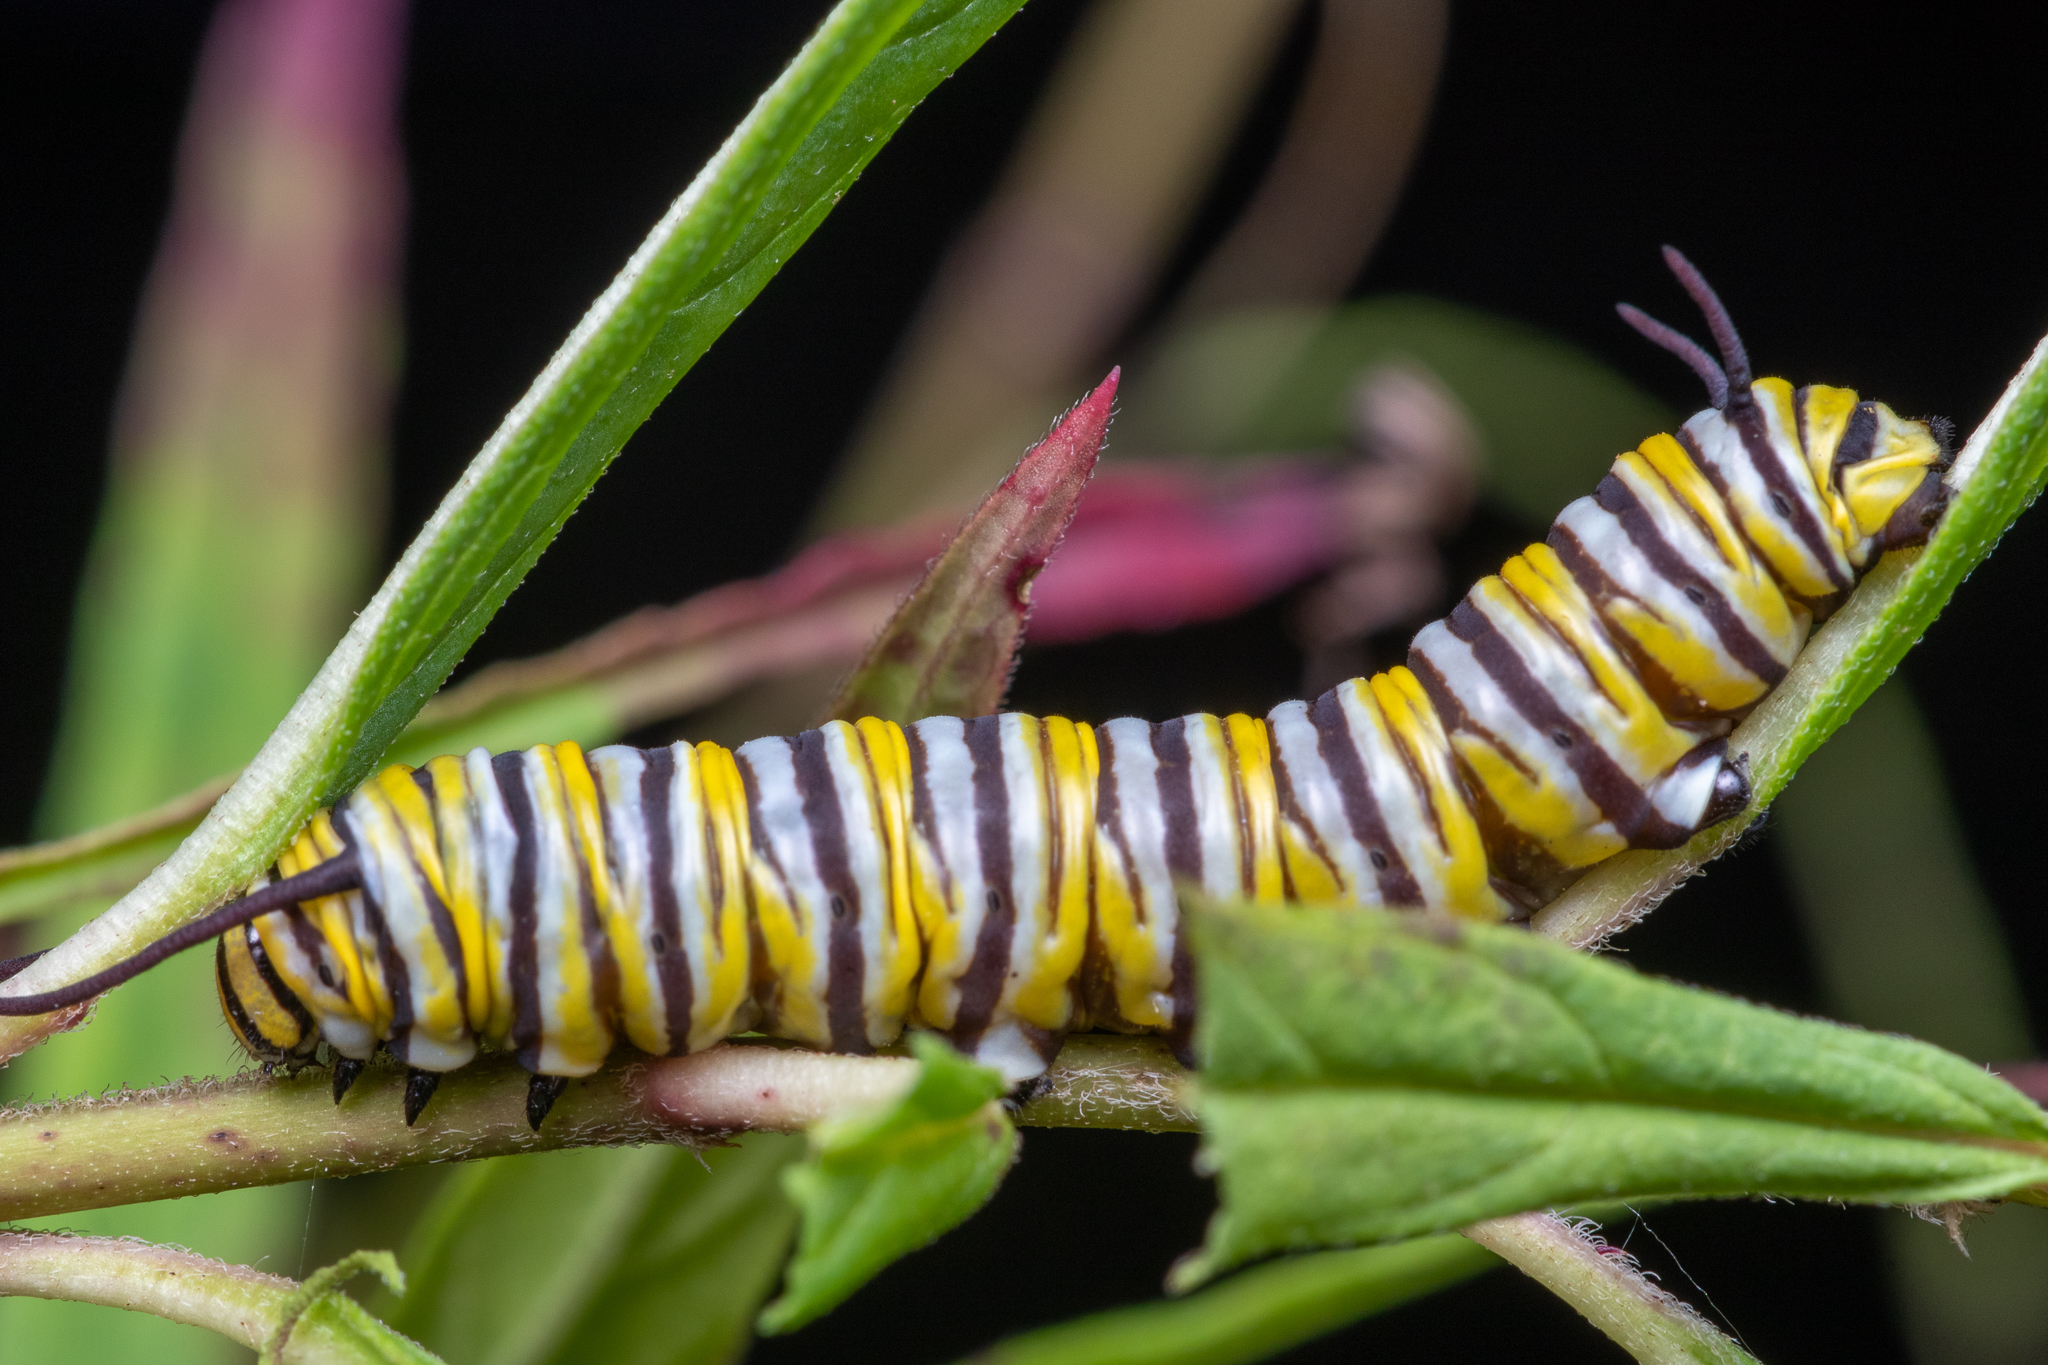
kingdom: Animalia
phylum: Arthropoda
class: Insecta
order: Lepidoptera
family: Nymphalidae
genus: Danaus
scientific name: Danaus plexippus
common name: Monarch
